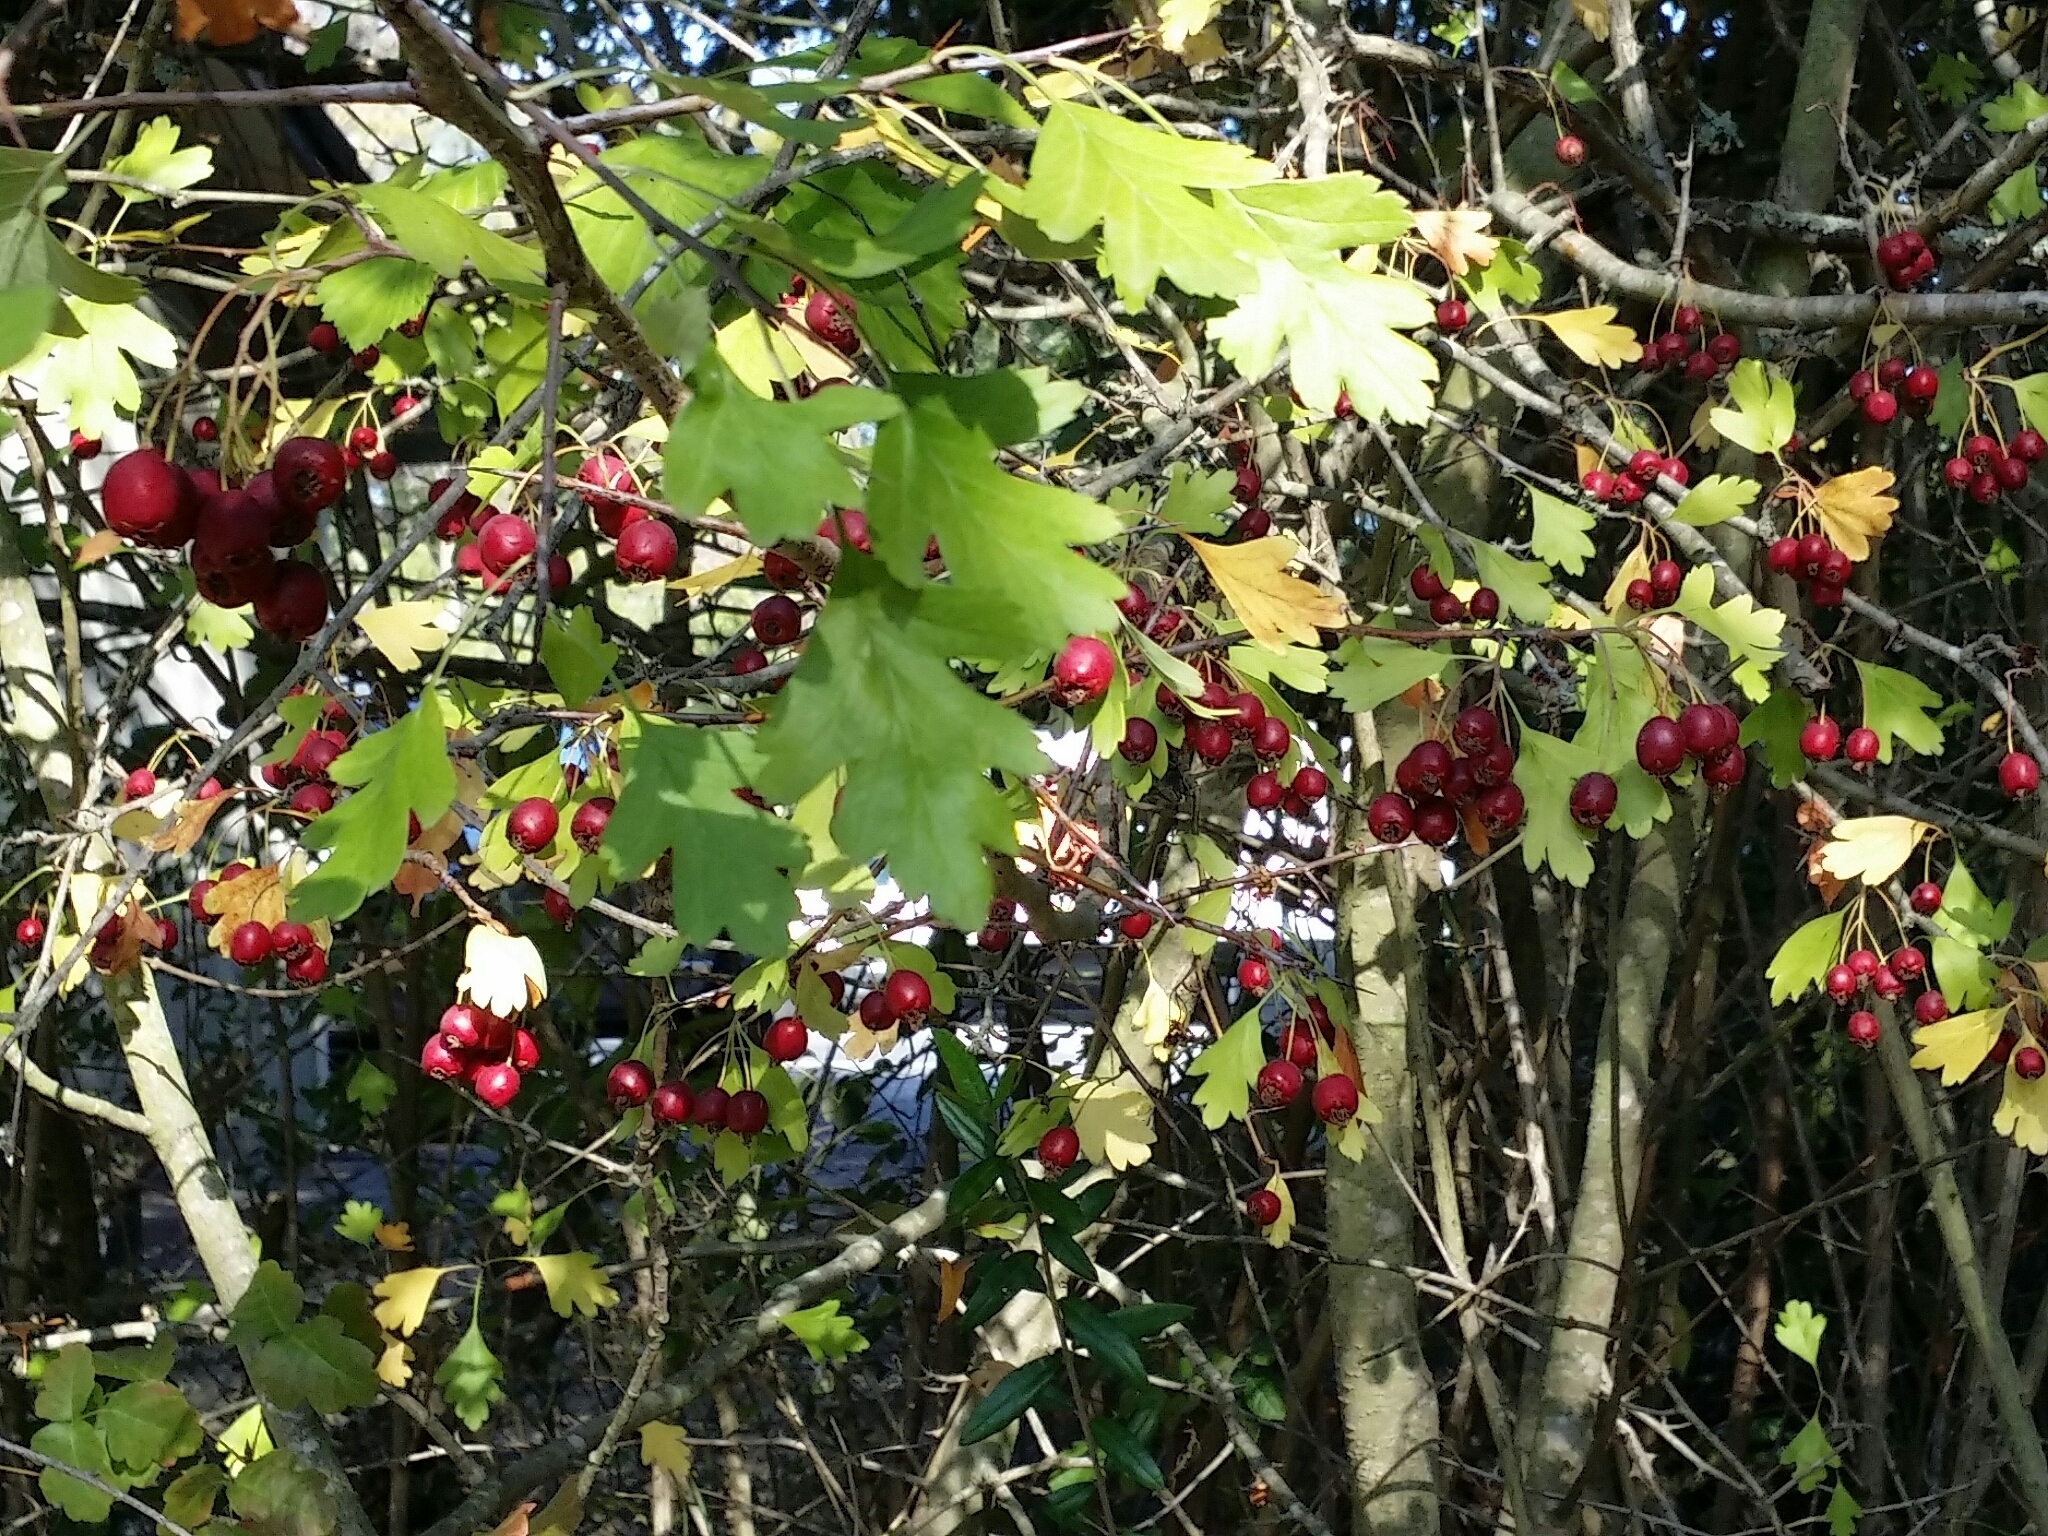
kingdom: Plantae
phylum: Tracheophyta
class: Magnoliopsida
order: Rosales
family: Rosaceae
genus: Crataegus
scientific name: Crataegus monogyna
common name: Hawthorn
